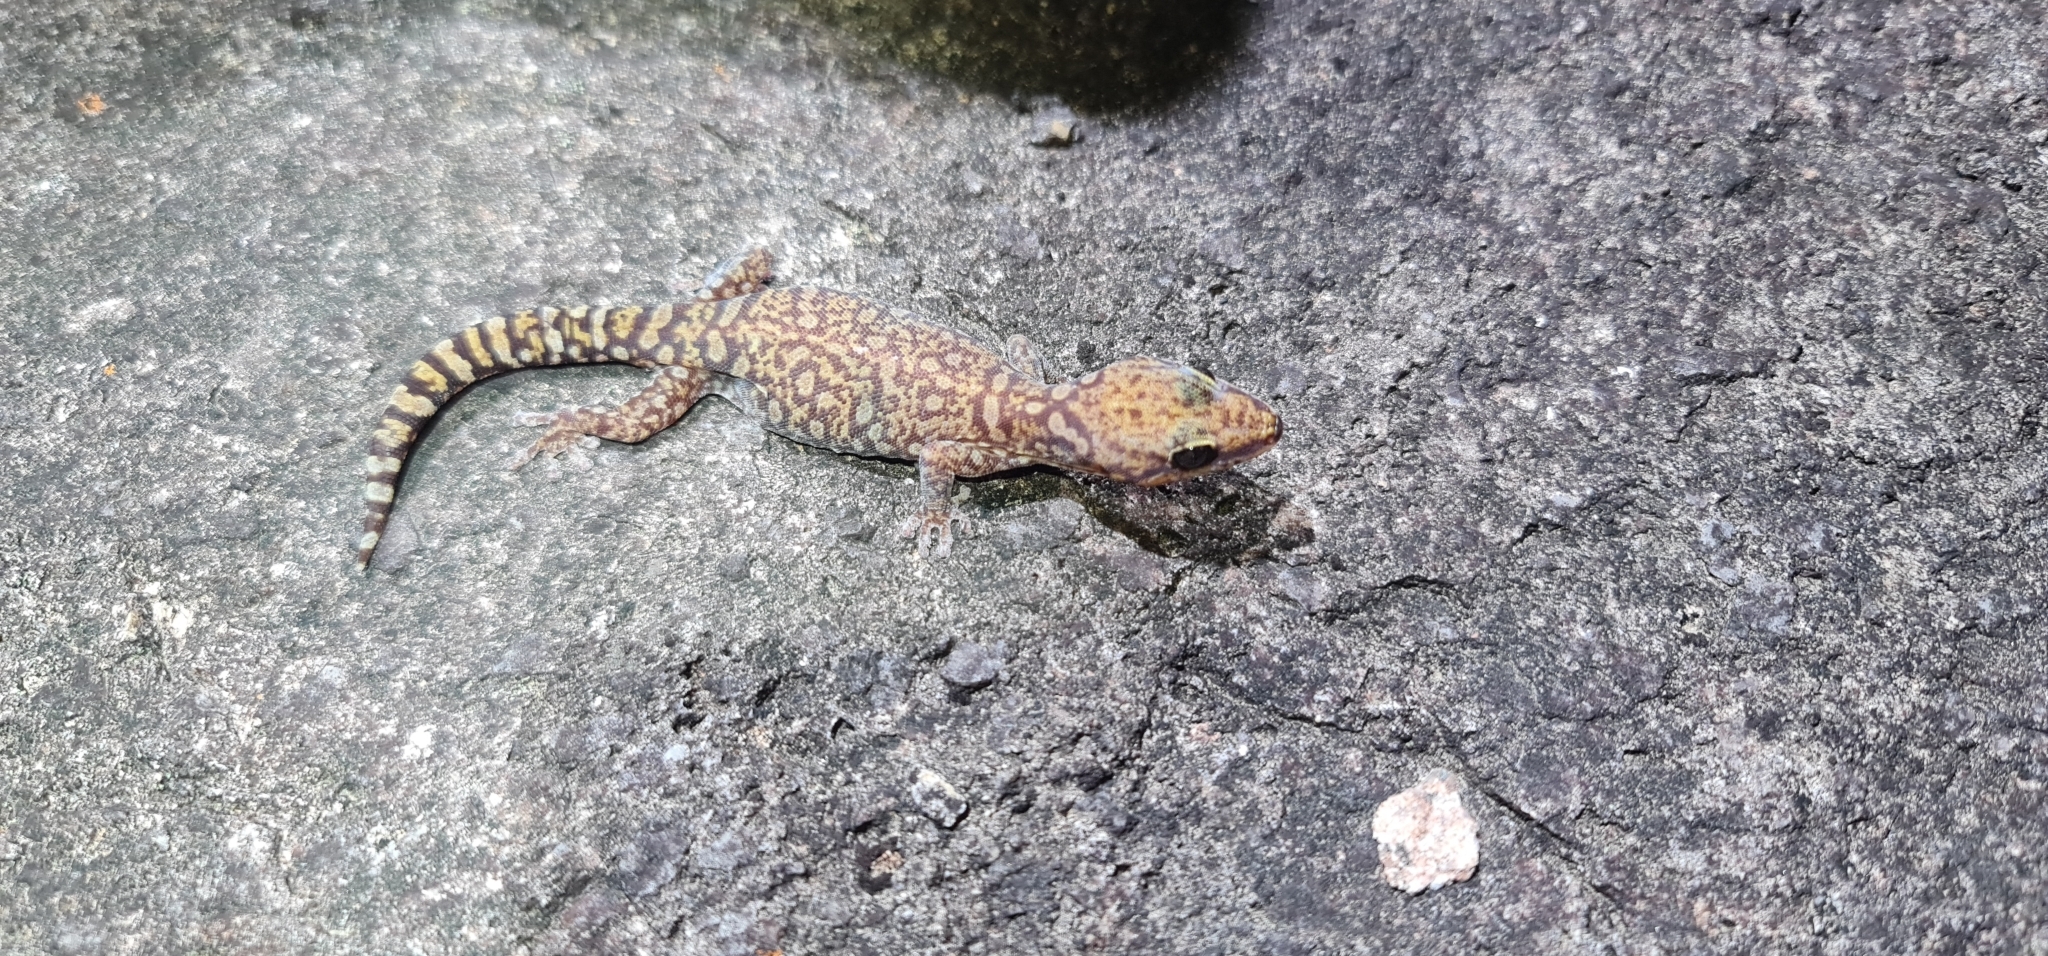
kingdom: Animalia
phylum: Chordata
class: Squamata
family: Diplodactylidae
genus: Oedura
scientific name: Oedura coggeri
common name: Northern spotted velvet gecko
